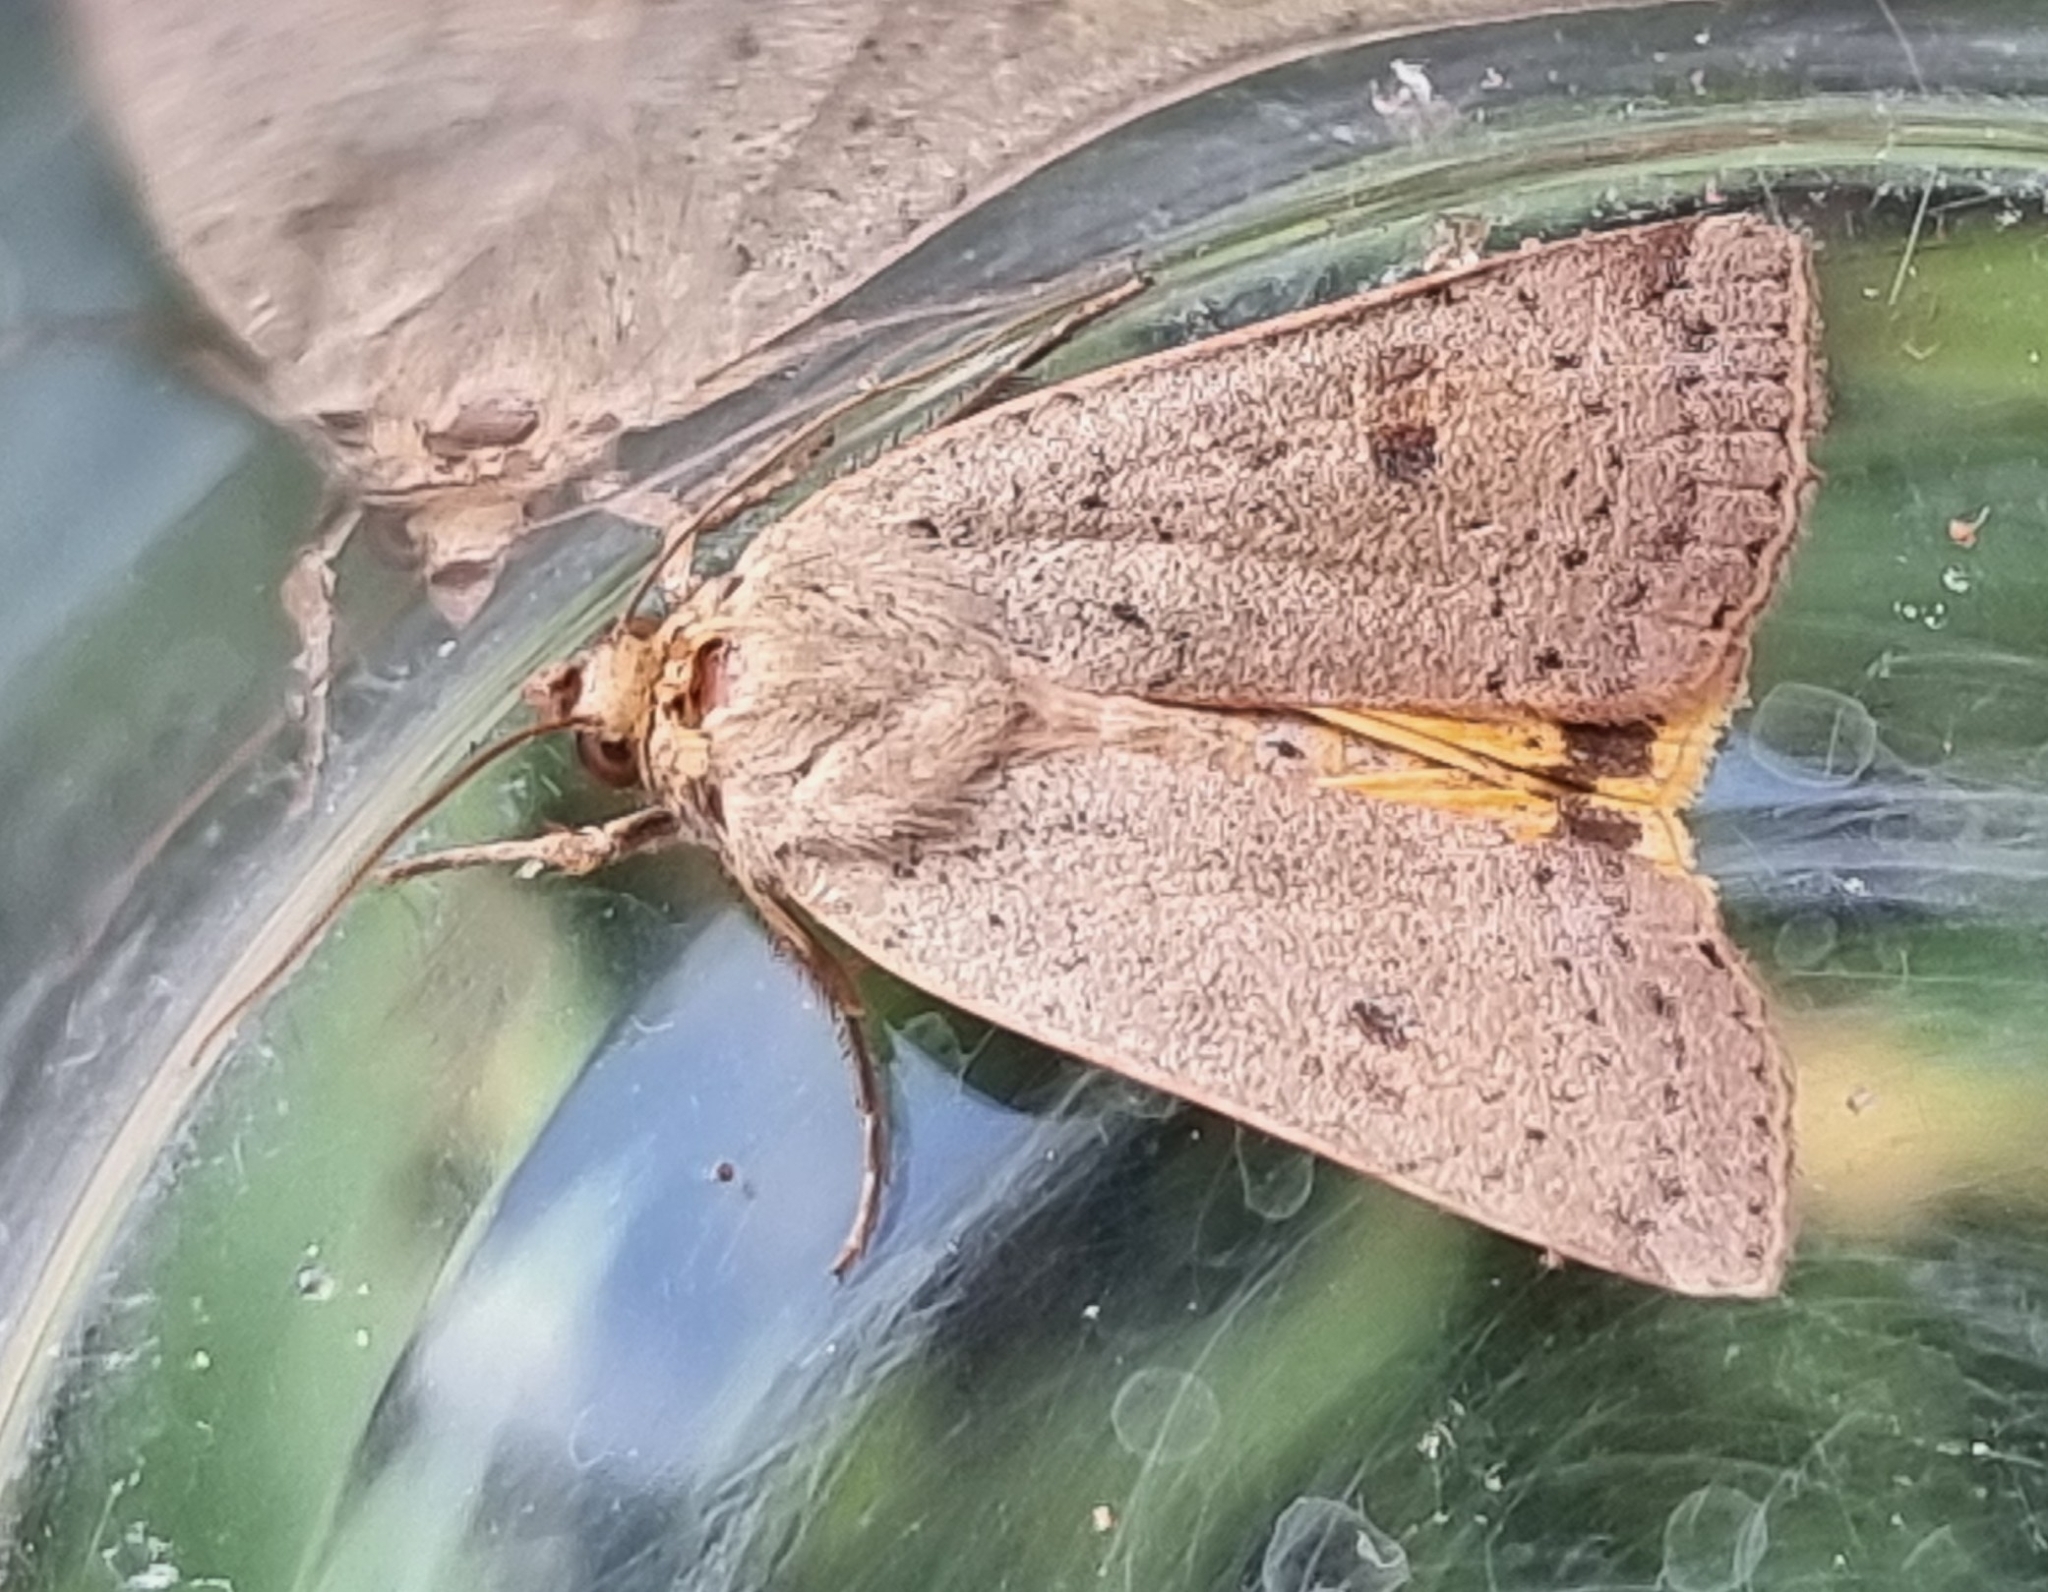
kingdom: Animalia
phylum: Arthropoda
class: Insecta
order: Lepidoptera
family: Noctuidae
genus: Noctua
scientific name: Noctua comes
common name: Lesser yellow underwing
